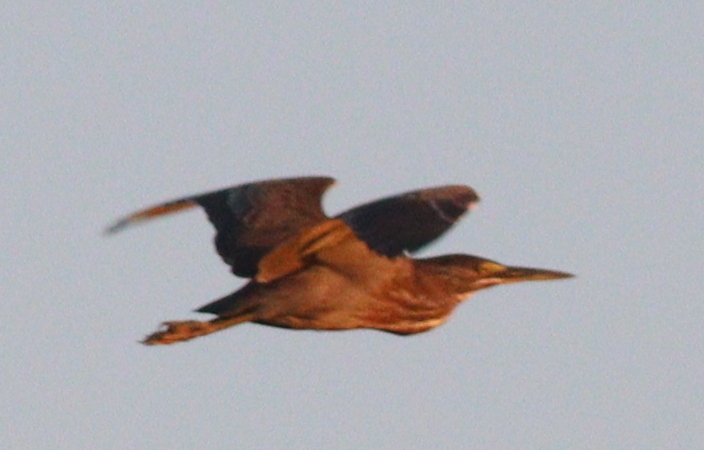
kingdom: Animalia
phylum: Chordata
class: Aves
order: Pelecaniformes
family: Ardeidae
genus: Butorides
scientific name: Butorides striata
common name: Striated heron
